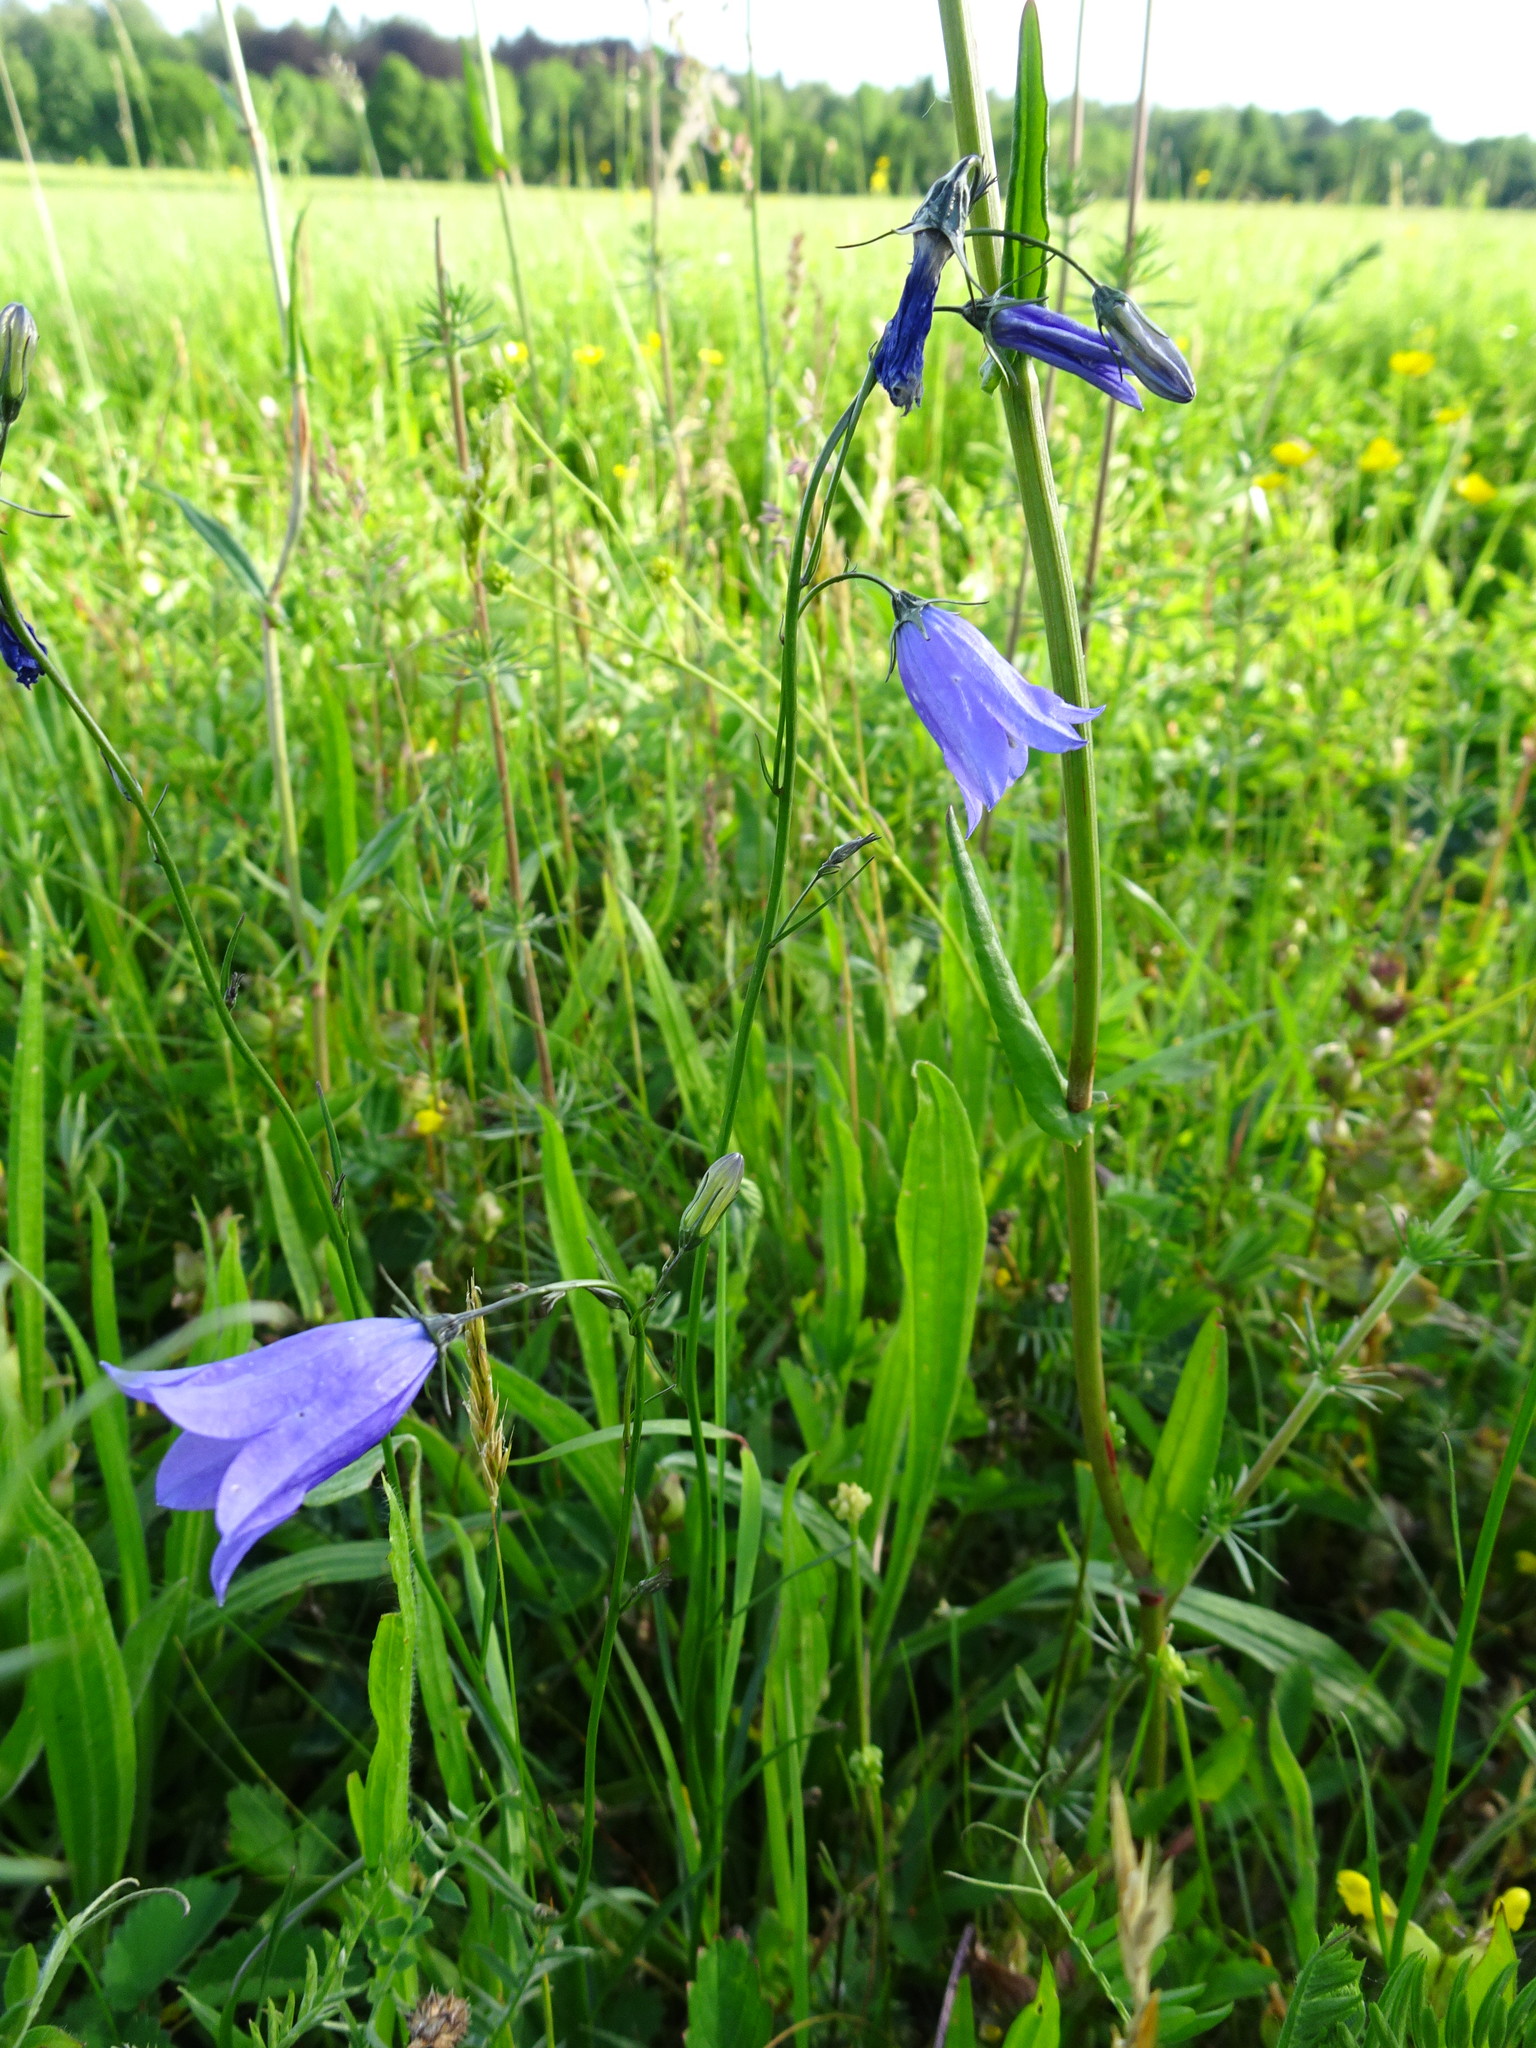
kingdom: Plantae
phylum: Tracheophyta
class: Magnoliopsida
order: Asterales
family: Campanulaceae
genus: Campanula
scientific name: Campanula rotundifolia
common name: Harebell
